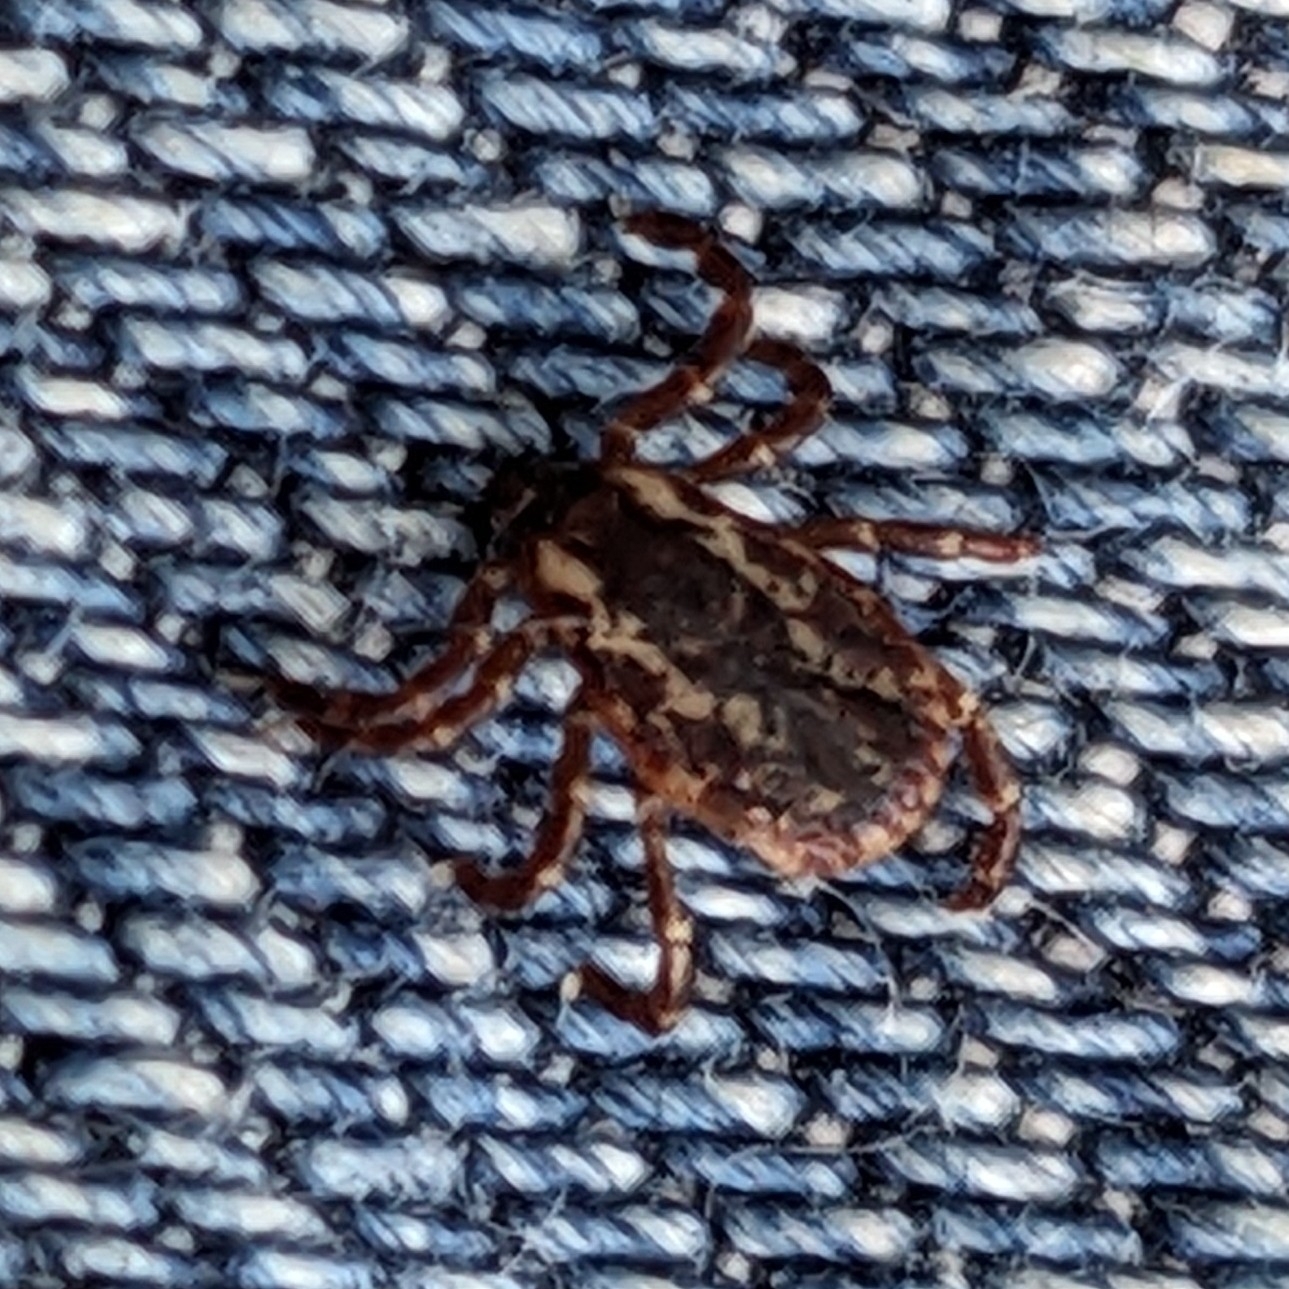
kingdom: Animalia
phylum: Arthropoda
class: Arachnida
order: Ixodida
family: Ixodidae
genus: Dermacentor
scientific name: Dermacentor variabilis
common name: American dog tick
